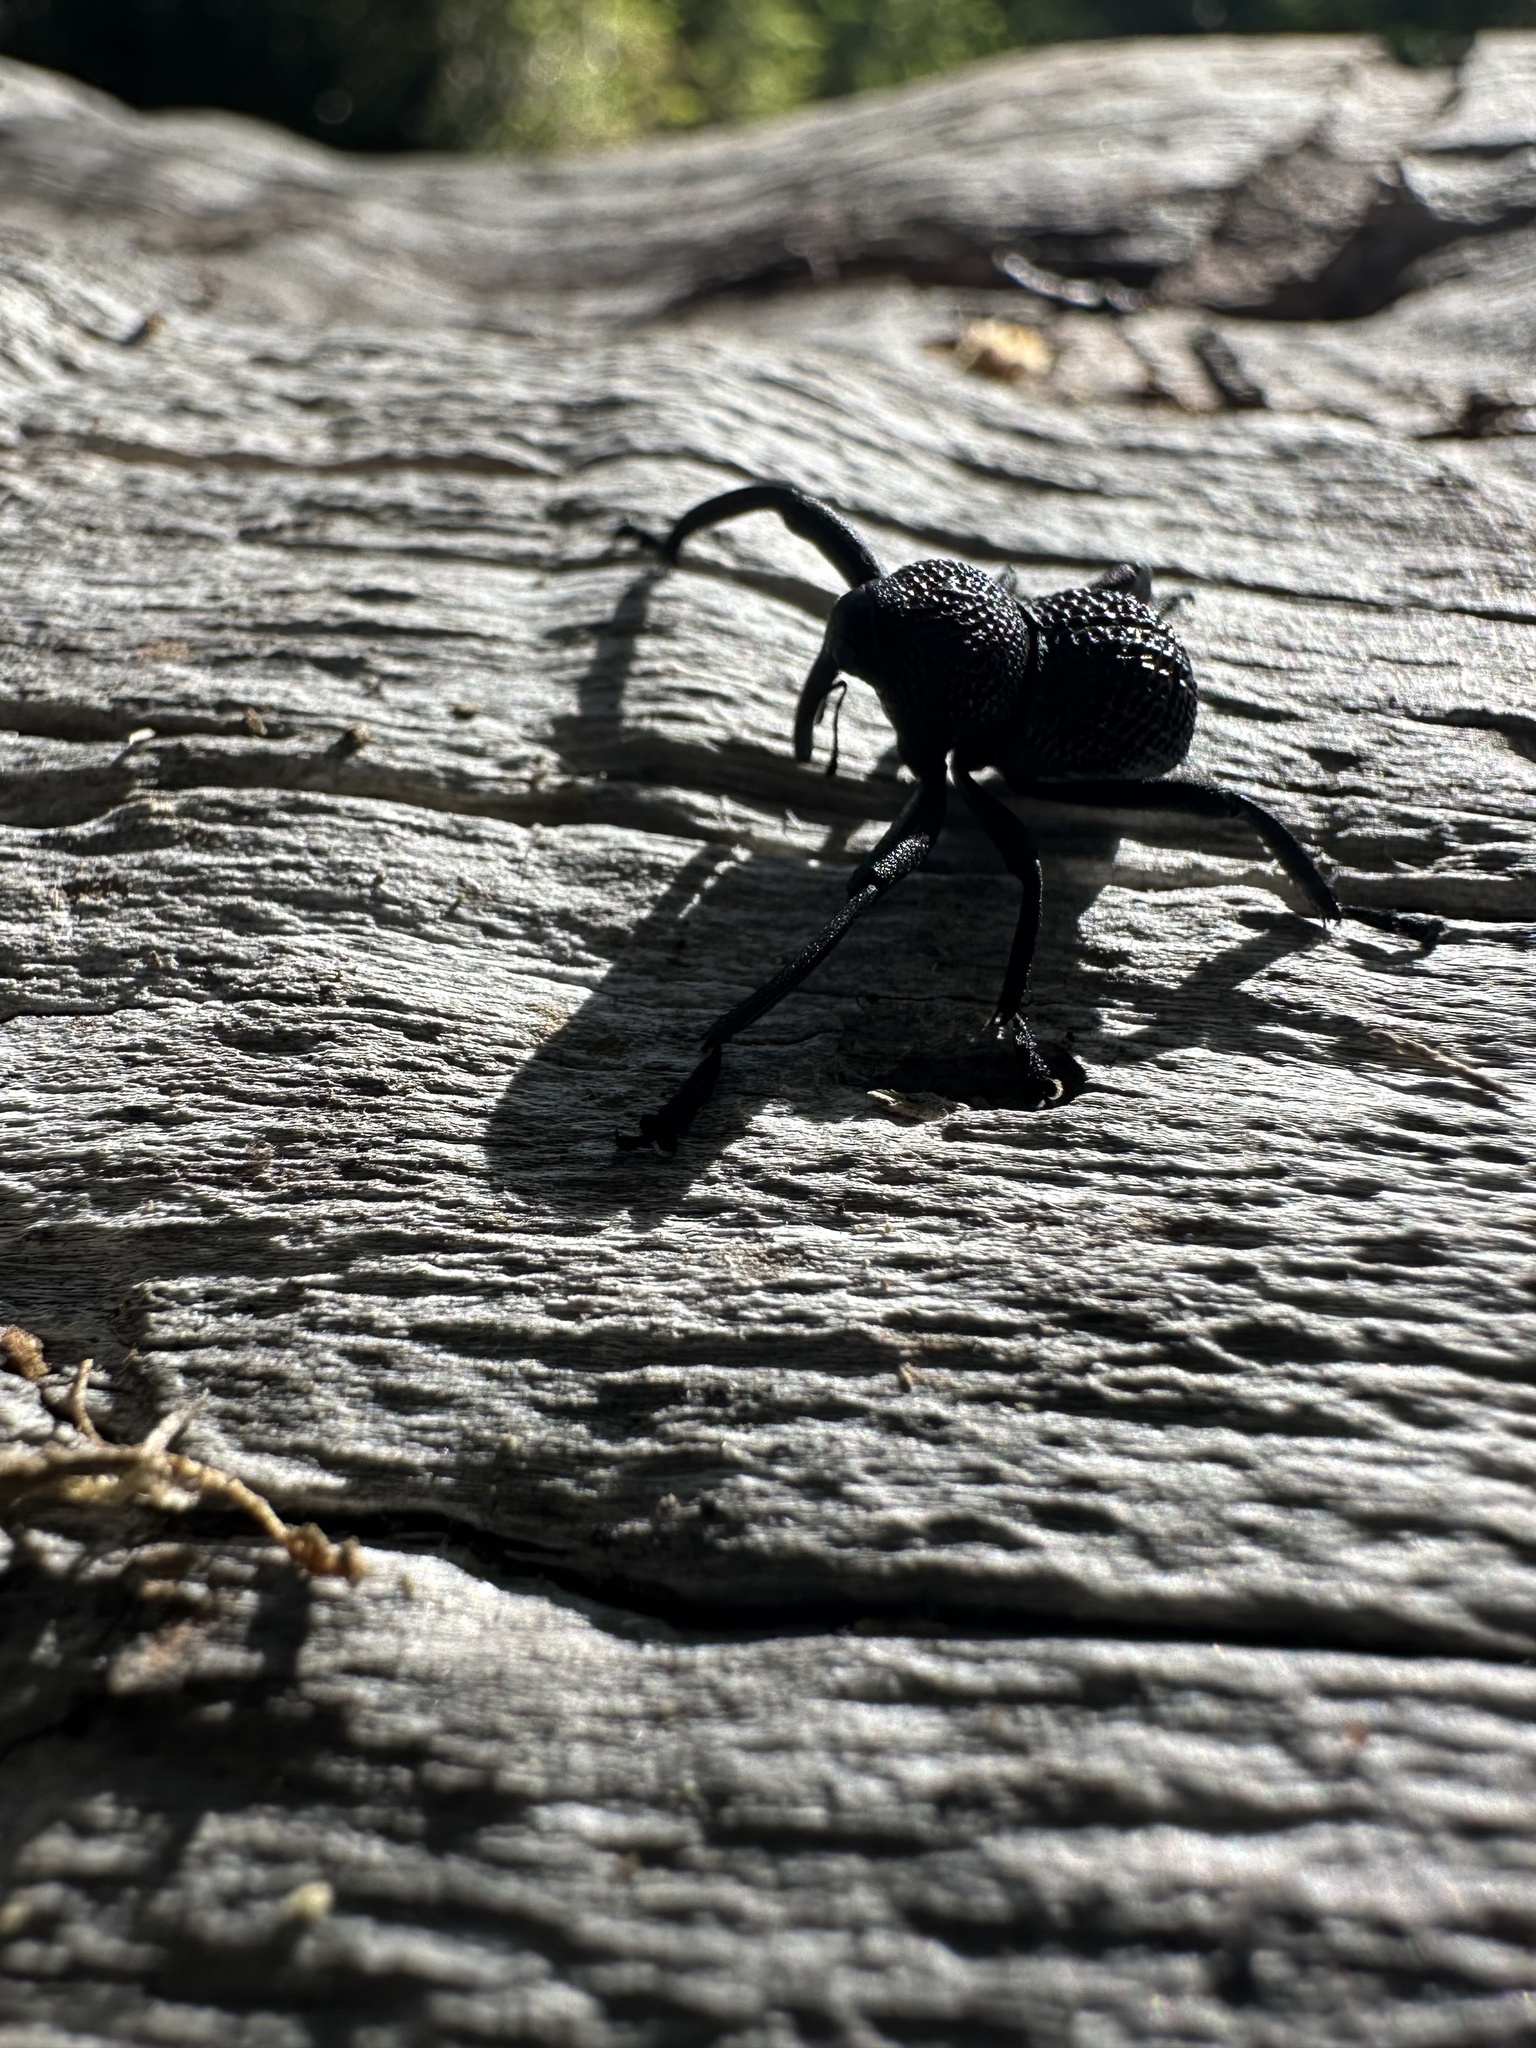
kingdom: Animalia
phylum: Arthropoda
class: Insecta
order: Coleoptera
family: Curculionidae
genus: Rhyephenes
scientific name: Rhyephenes maillei
